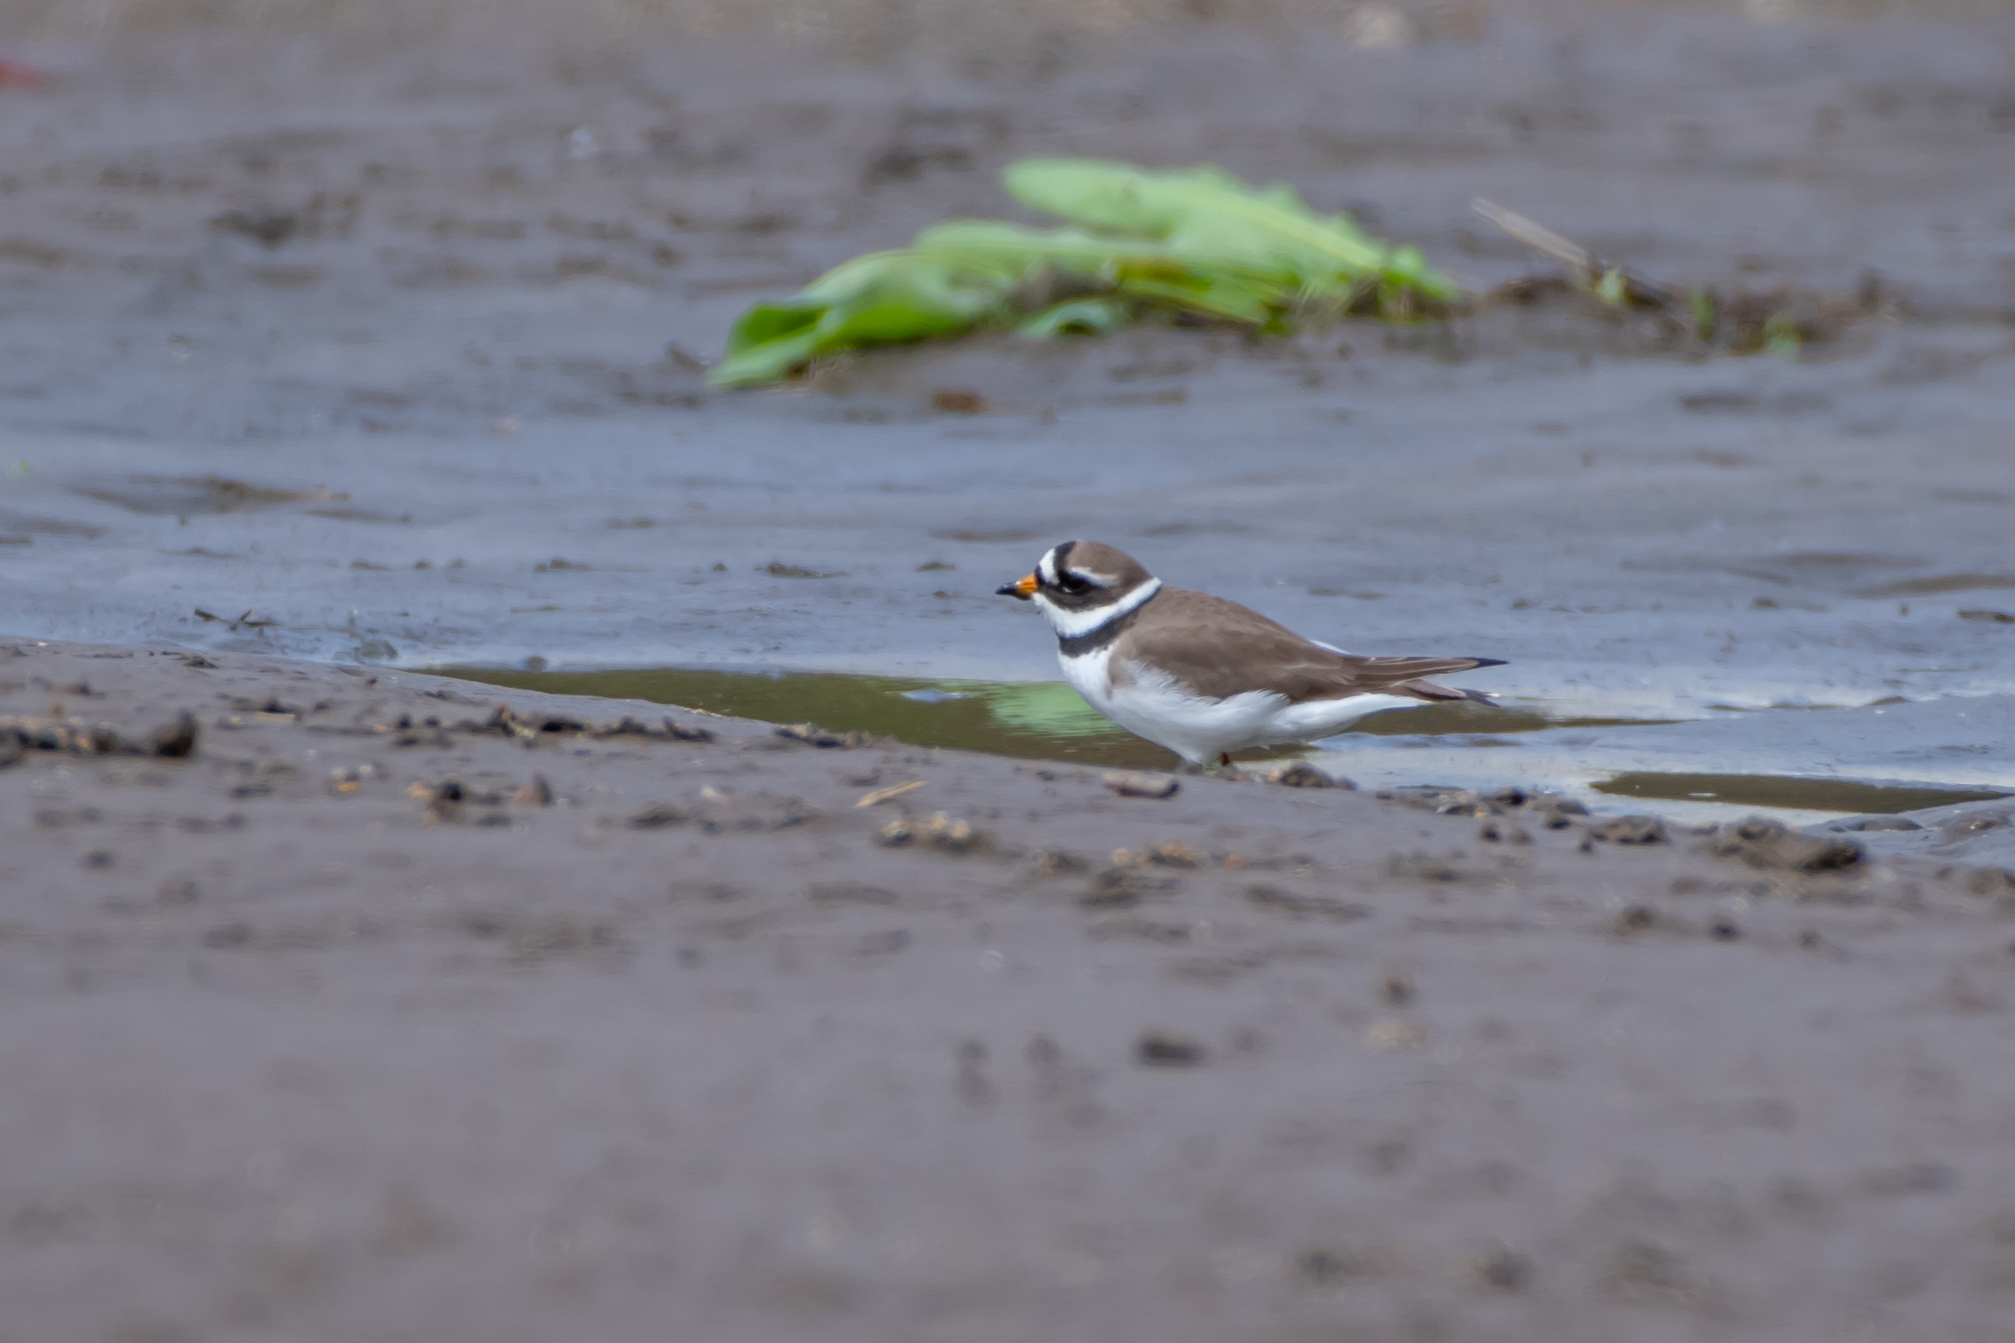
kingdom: Animalia
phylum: Chordata
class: Aves
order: Charadriiformes
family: Charadriidae
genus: Charadrius
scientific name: Charadrius hiaticula
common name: Common ringed plover
